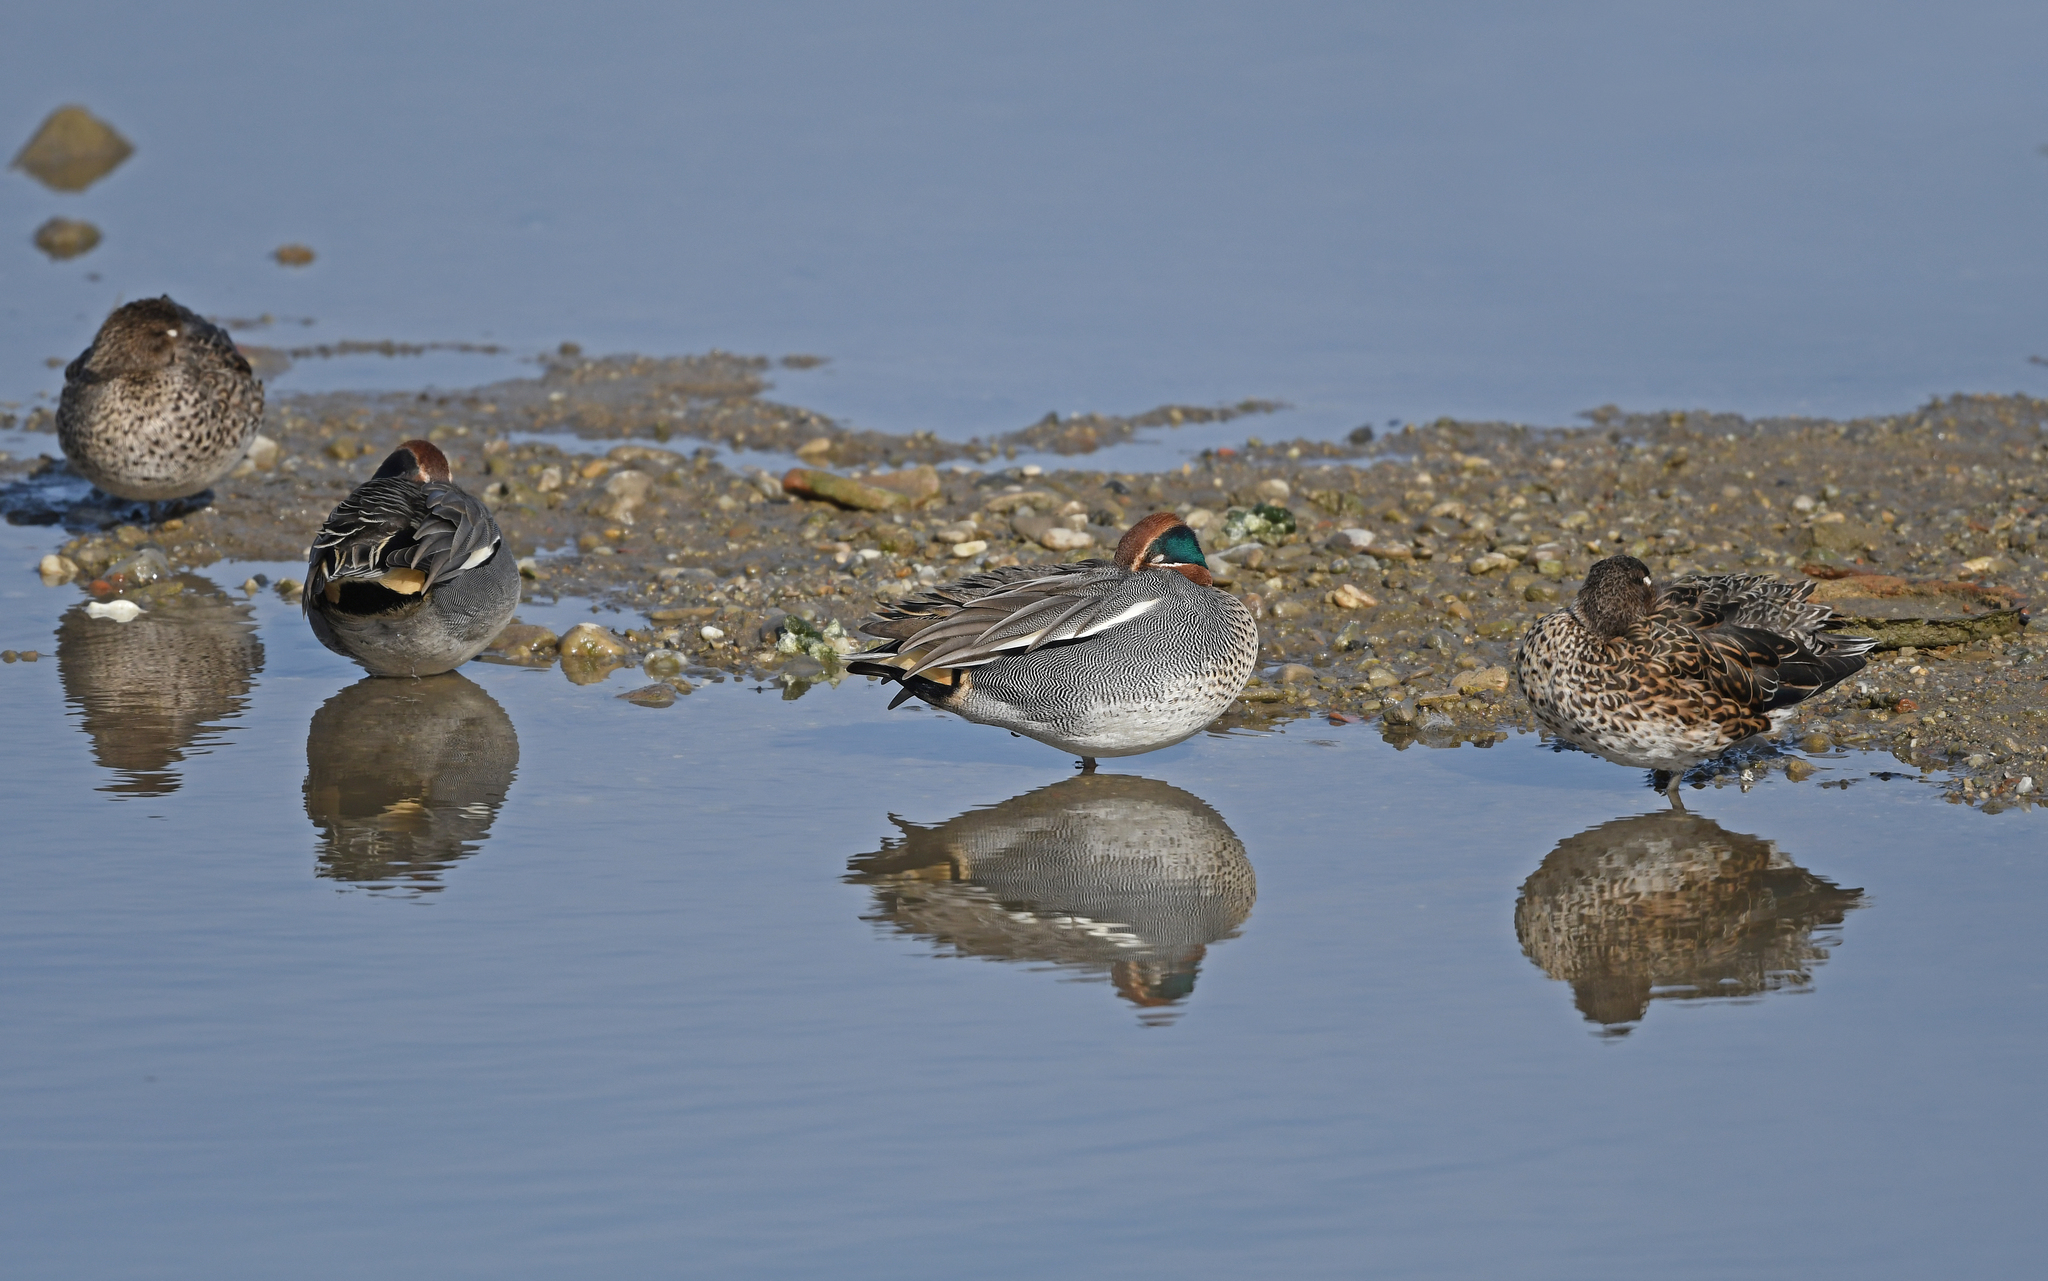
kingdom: Animalia
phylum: Chordata
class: Aves
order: Anseriformes
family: Anatidae
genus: Anas
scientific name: Anas crecca
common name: Eurasian teal
